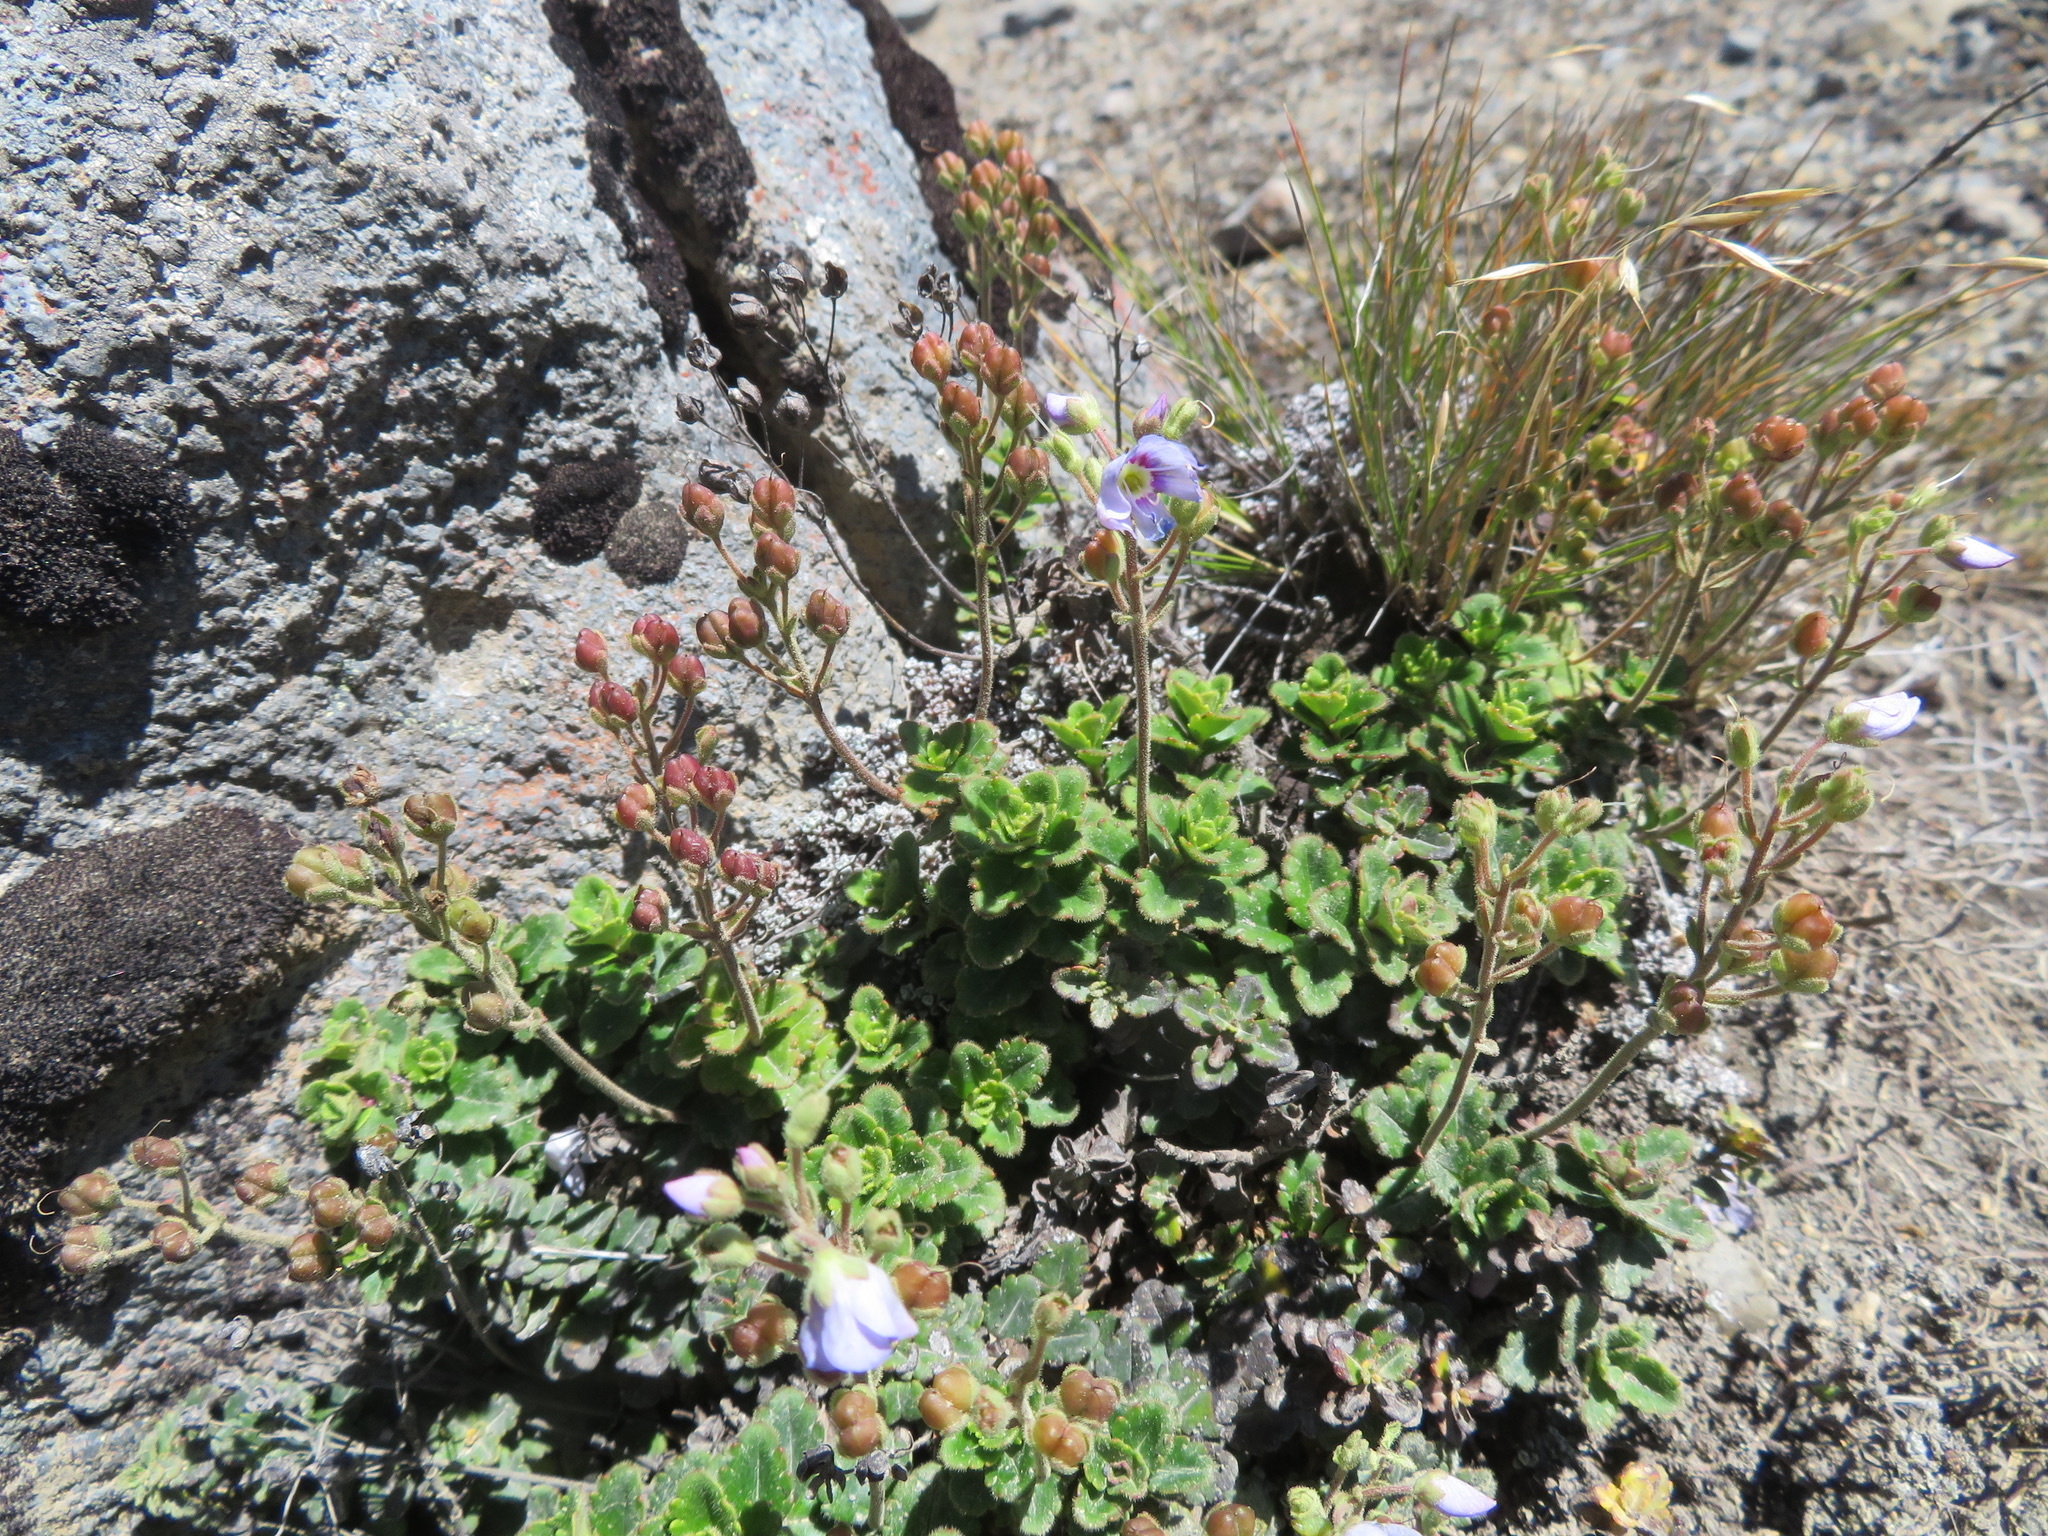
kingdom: Plantae
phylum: Tracheophyta
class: Magnoliopsida
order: Lamiales
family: Plantaginaceae
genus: Veronica
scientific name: Veronica hookeriana
